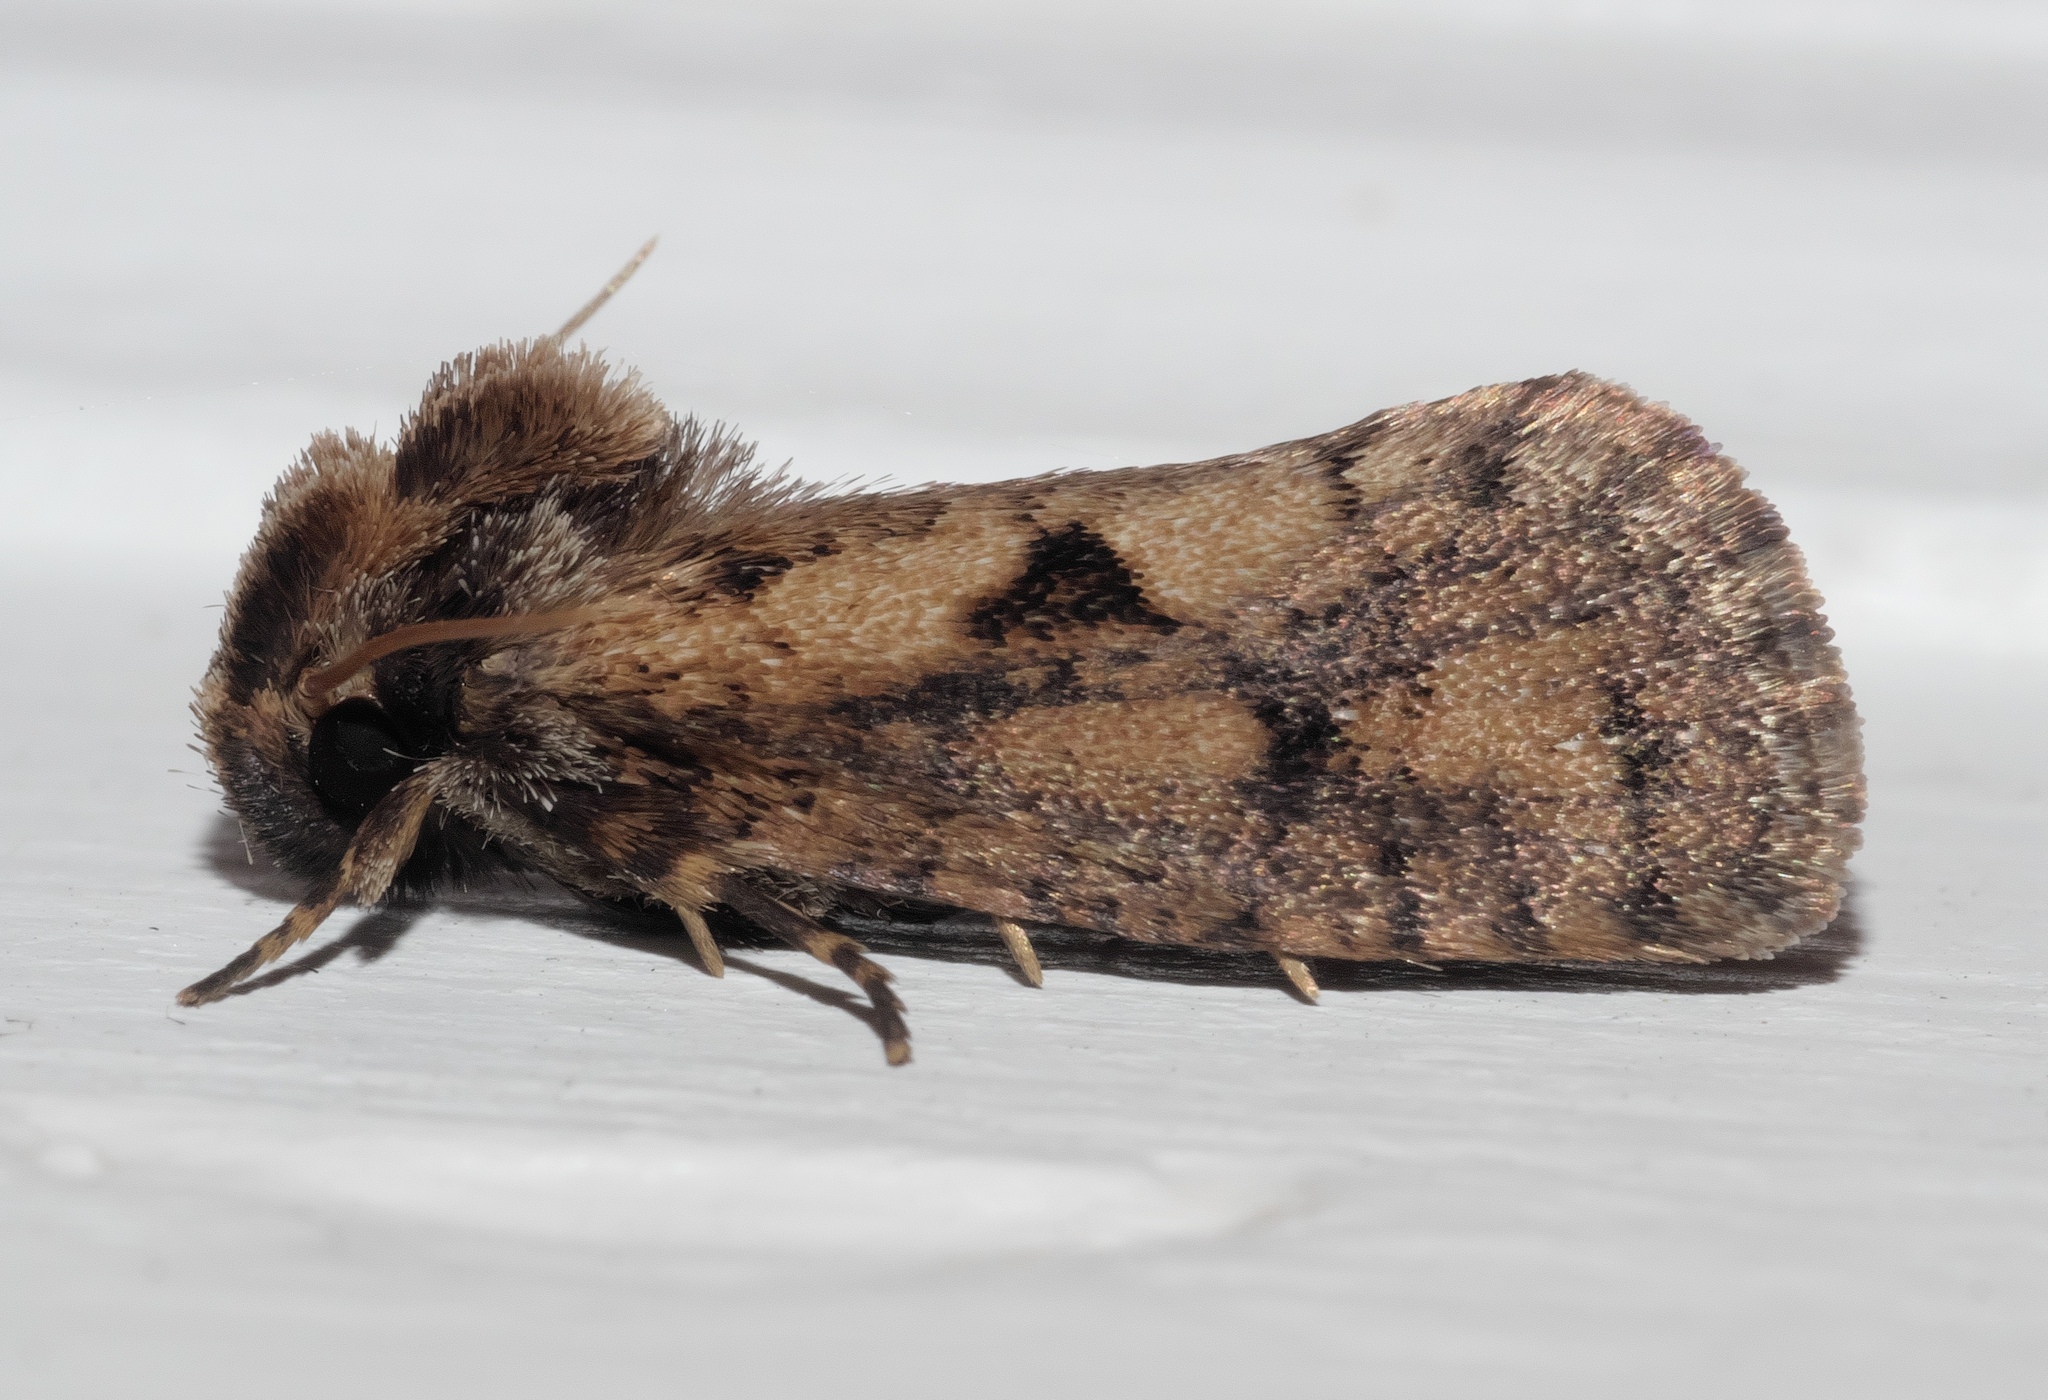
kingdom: Animalia
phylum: Arthropoda
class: Insecta
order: Lepidoptera
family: Tineidae
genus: Acrolophus
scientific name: Acrolophus popeanella
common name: Clemens' grass tubeworm moth
